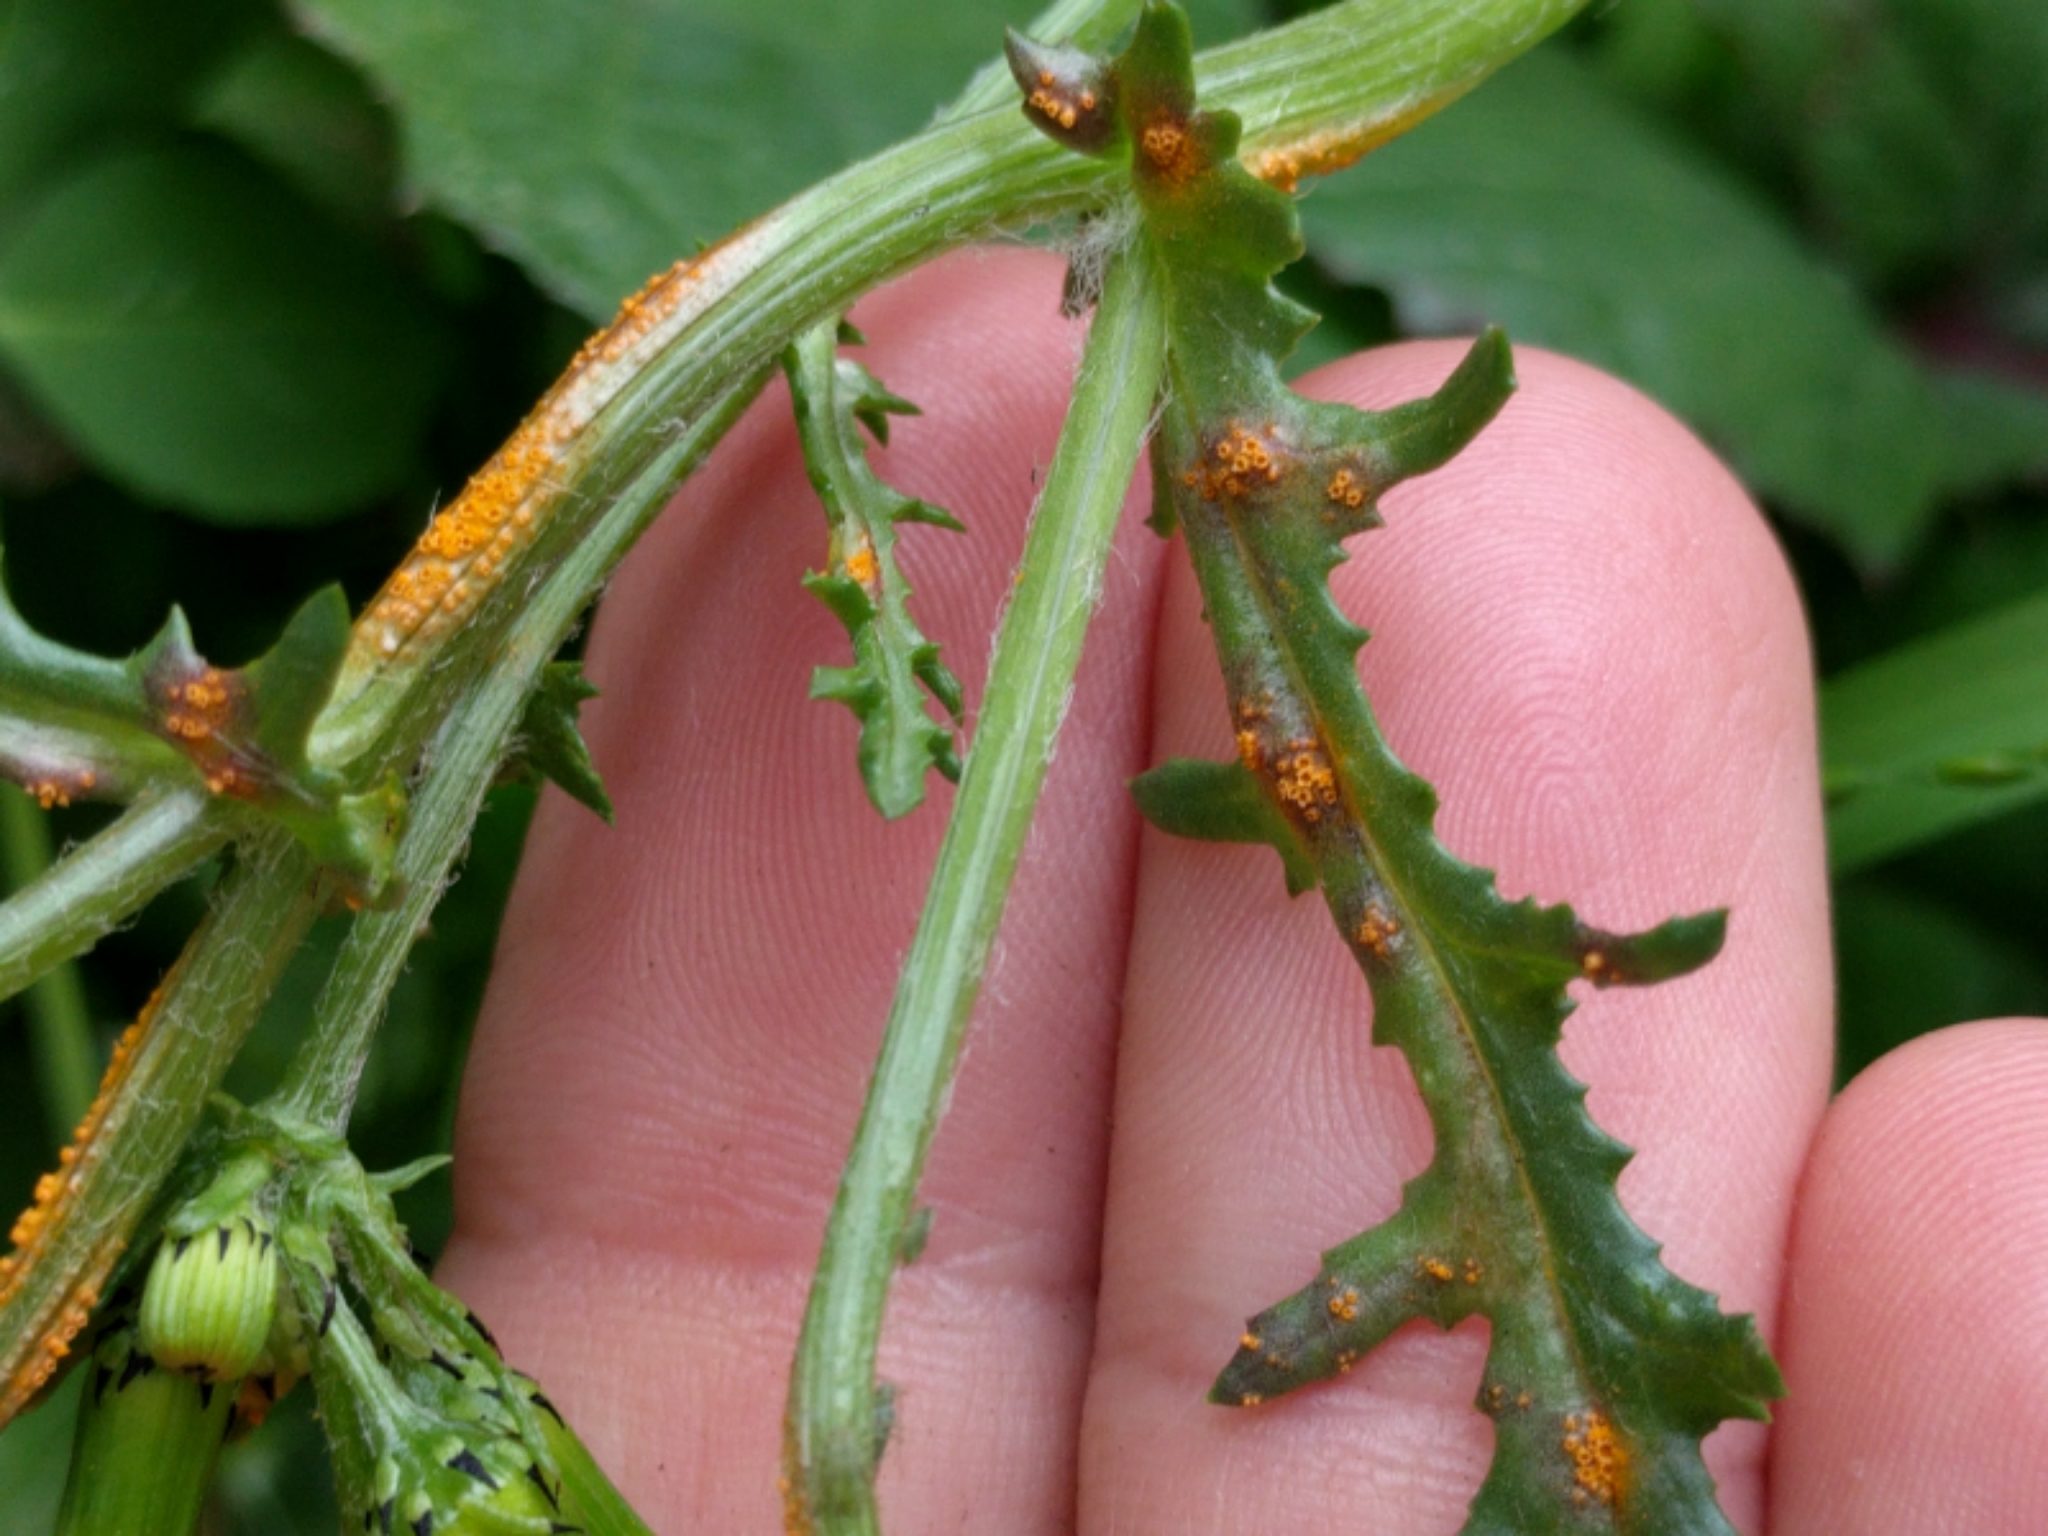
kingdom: Fungi
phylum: Basidiomycota
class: Pucciniomycetes
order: Pucciniales
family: Pucciniaceae
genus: Puccinia
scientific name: Puccinia lagenophorae
